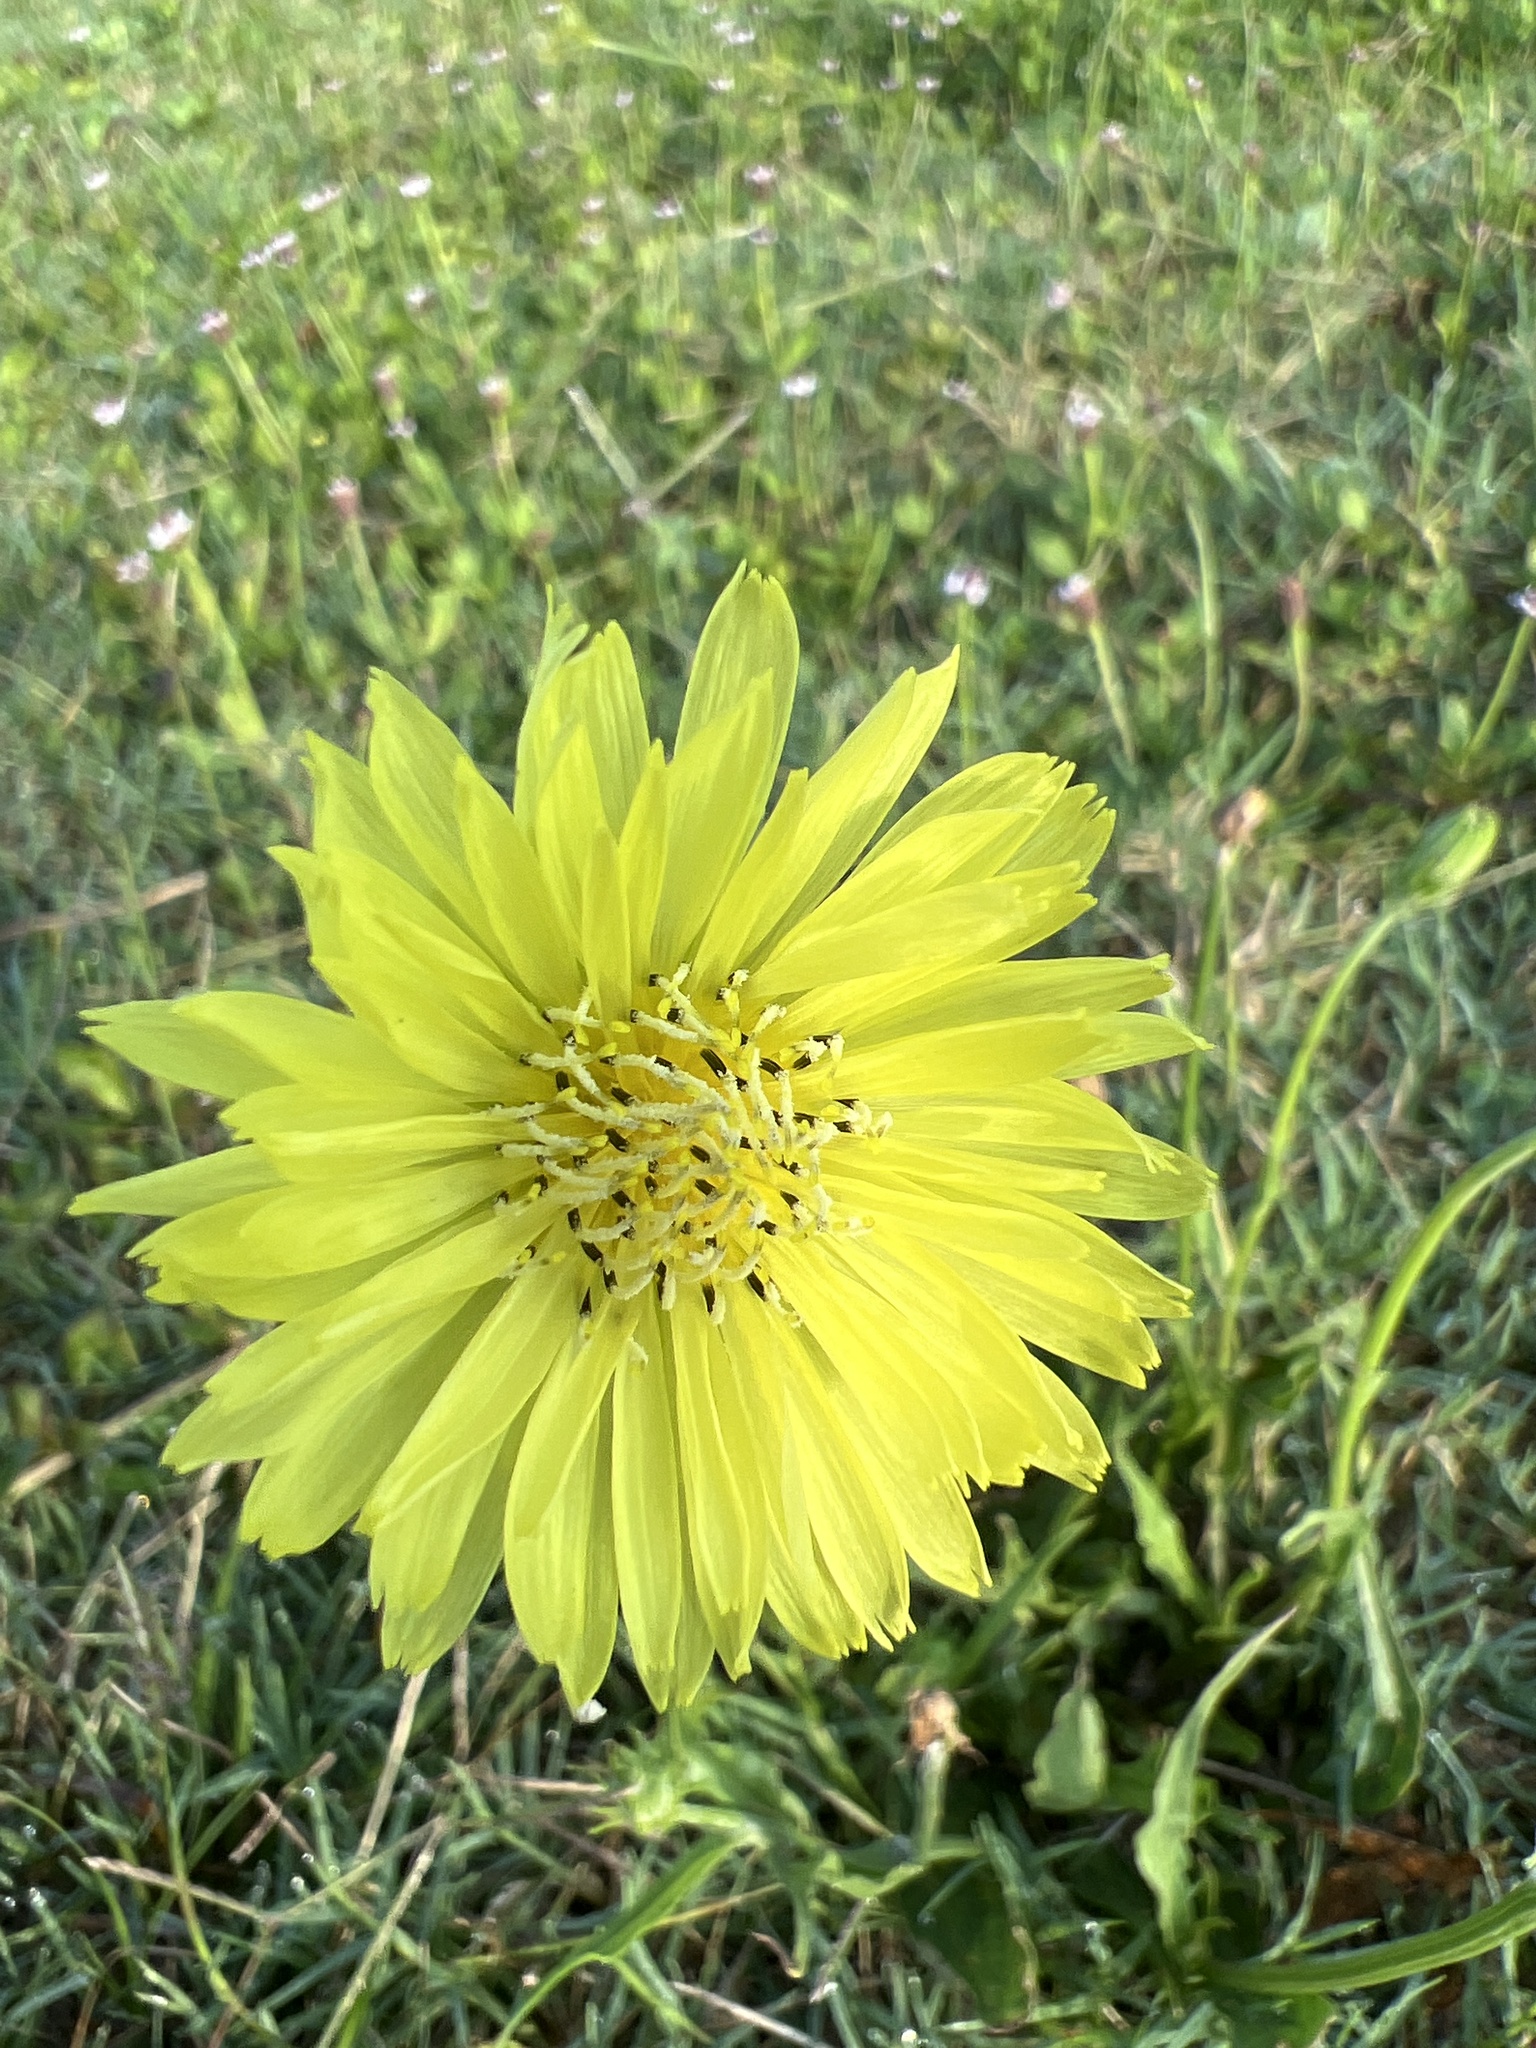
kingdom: Plantae
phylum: Tracheophyta
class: Magnoliopsida
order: Asterales
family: Asteraceae
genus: Pyrrhopappus
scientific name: Pyrrhopappus carolinianus
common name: Carolina desert-chicory
